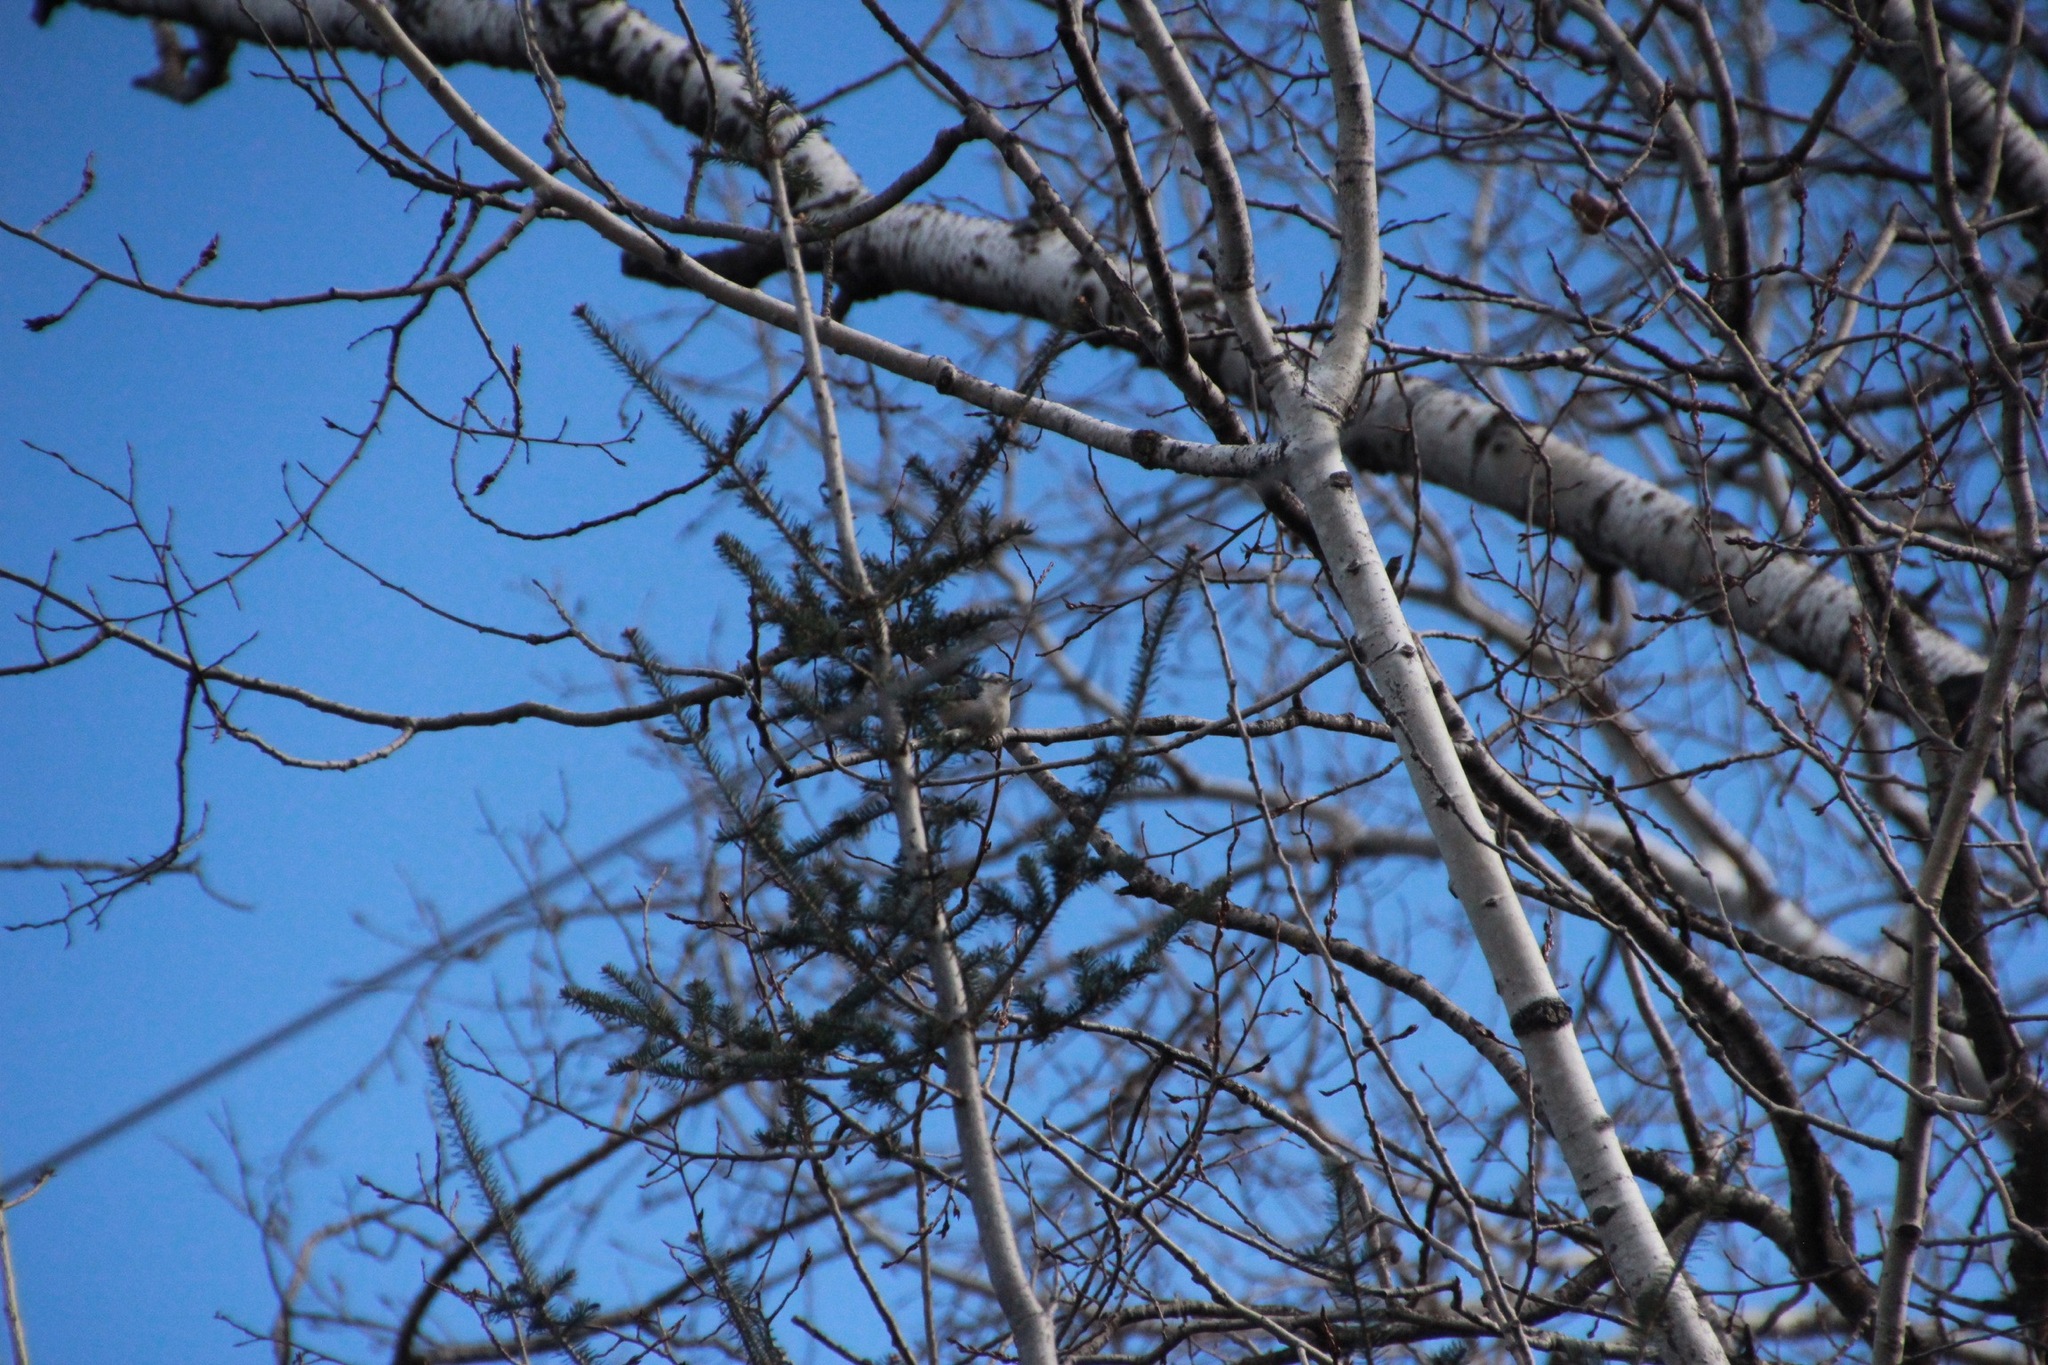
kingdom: Animalia
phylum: Chordata
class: Aves
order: Passeriformes
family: Sittidae
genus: Sitta
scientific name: Sitta carolinensis
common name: White-breasted nuthatch
